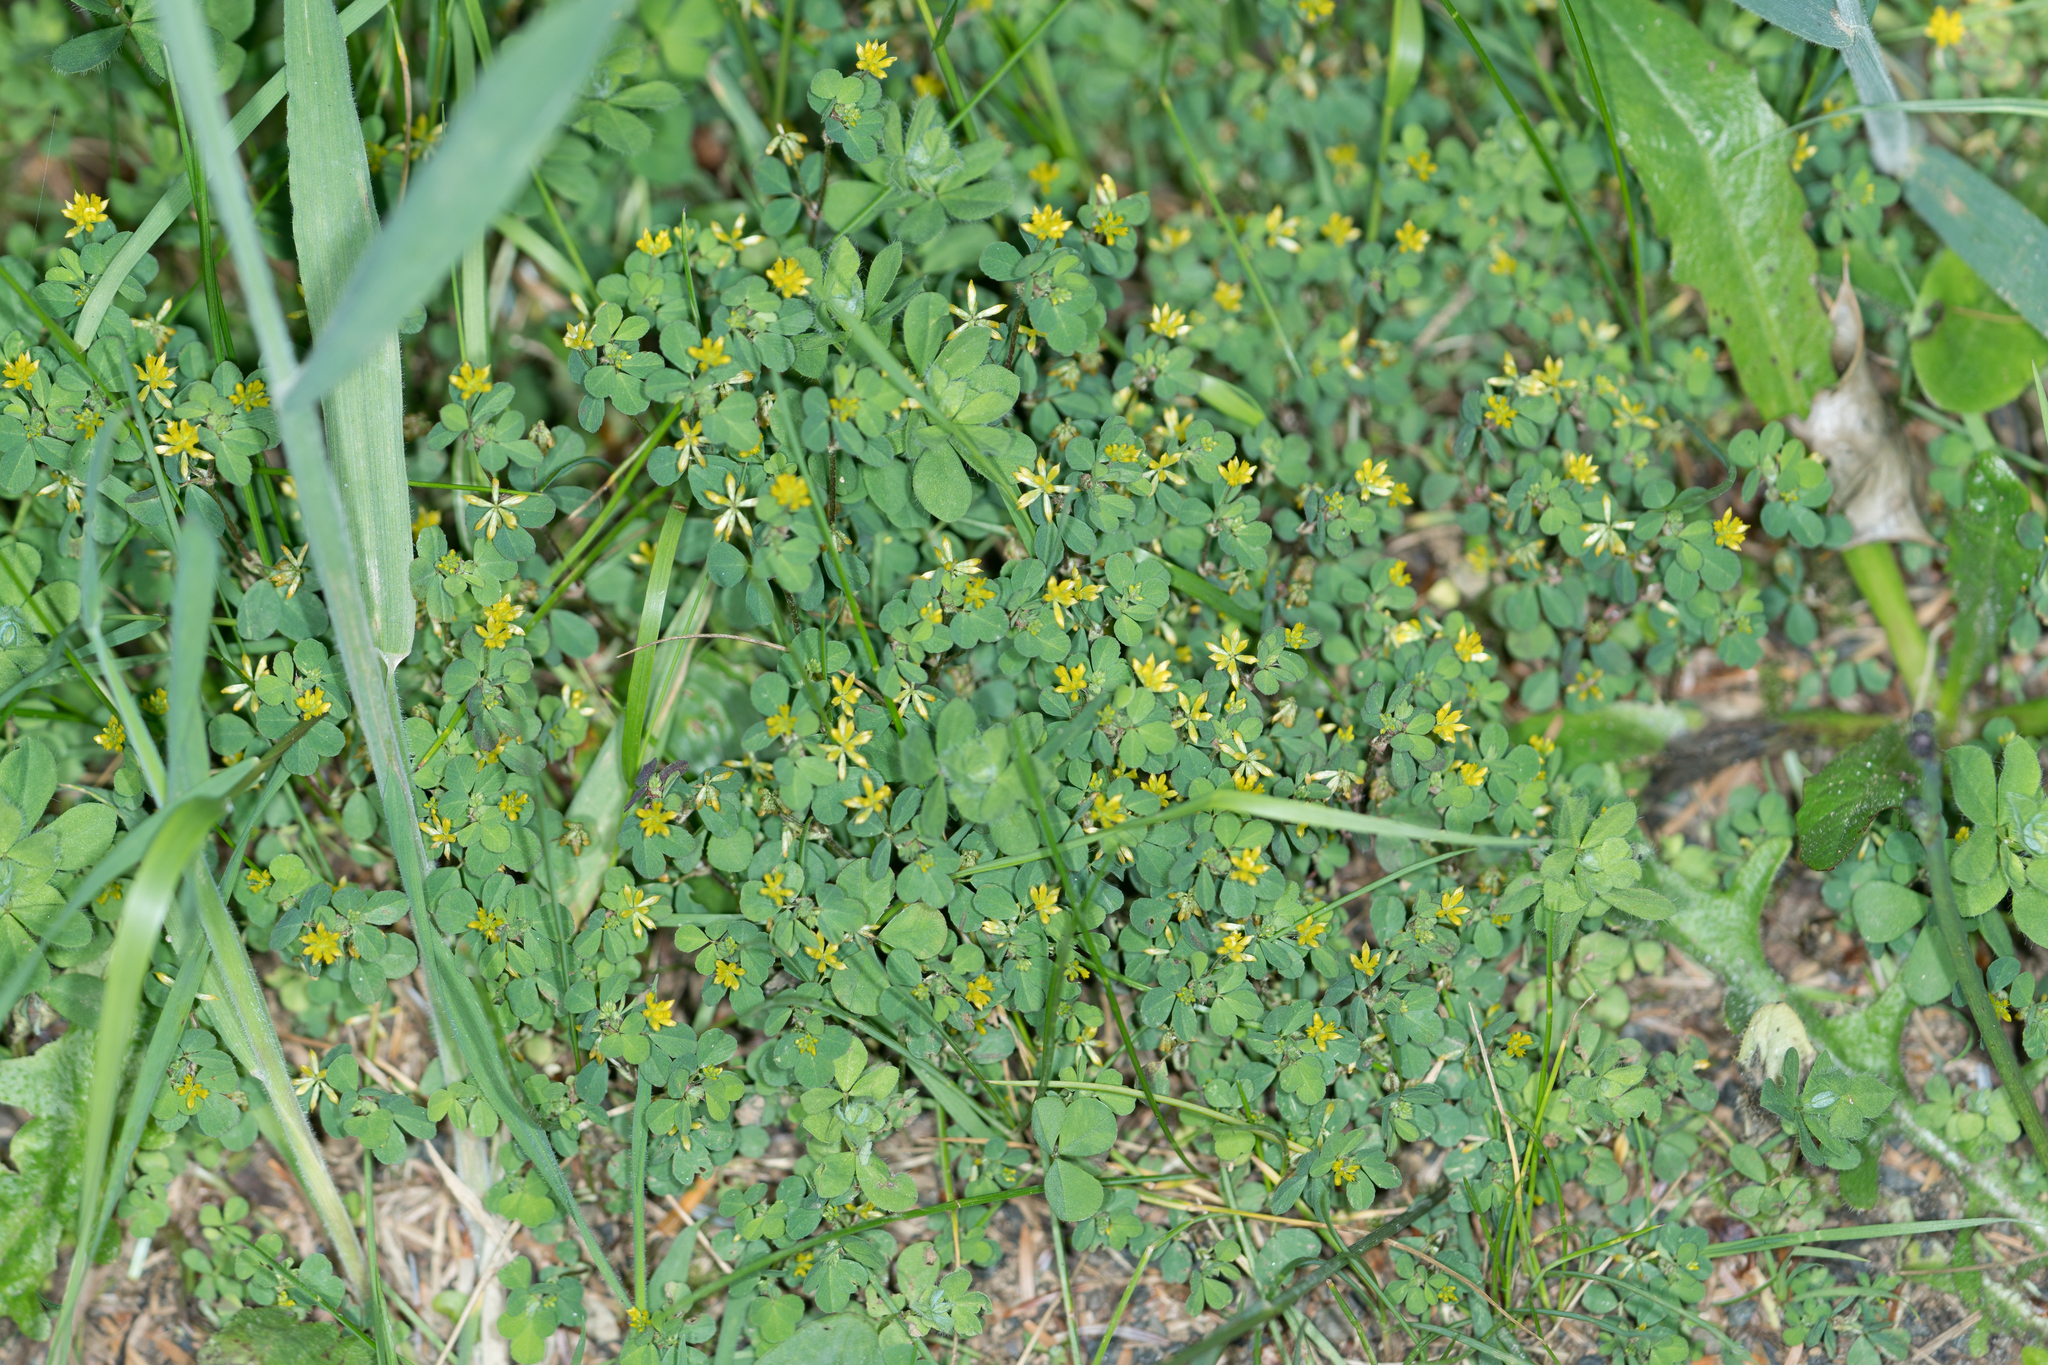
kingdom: Plantae
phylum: Tracheophyta
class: Magnoliopsida
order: Fabales
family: Fabaceae
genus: Trifolium
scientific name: Trifolium dubium
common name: Suckling clover
